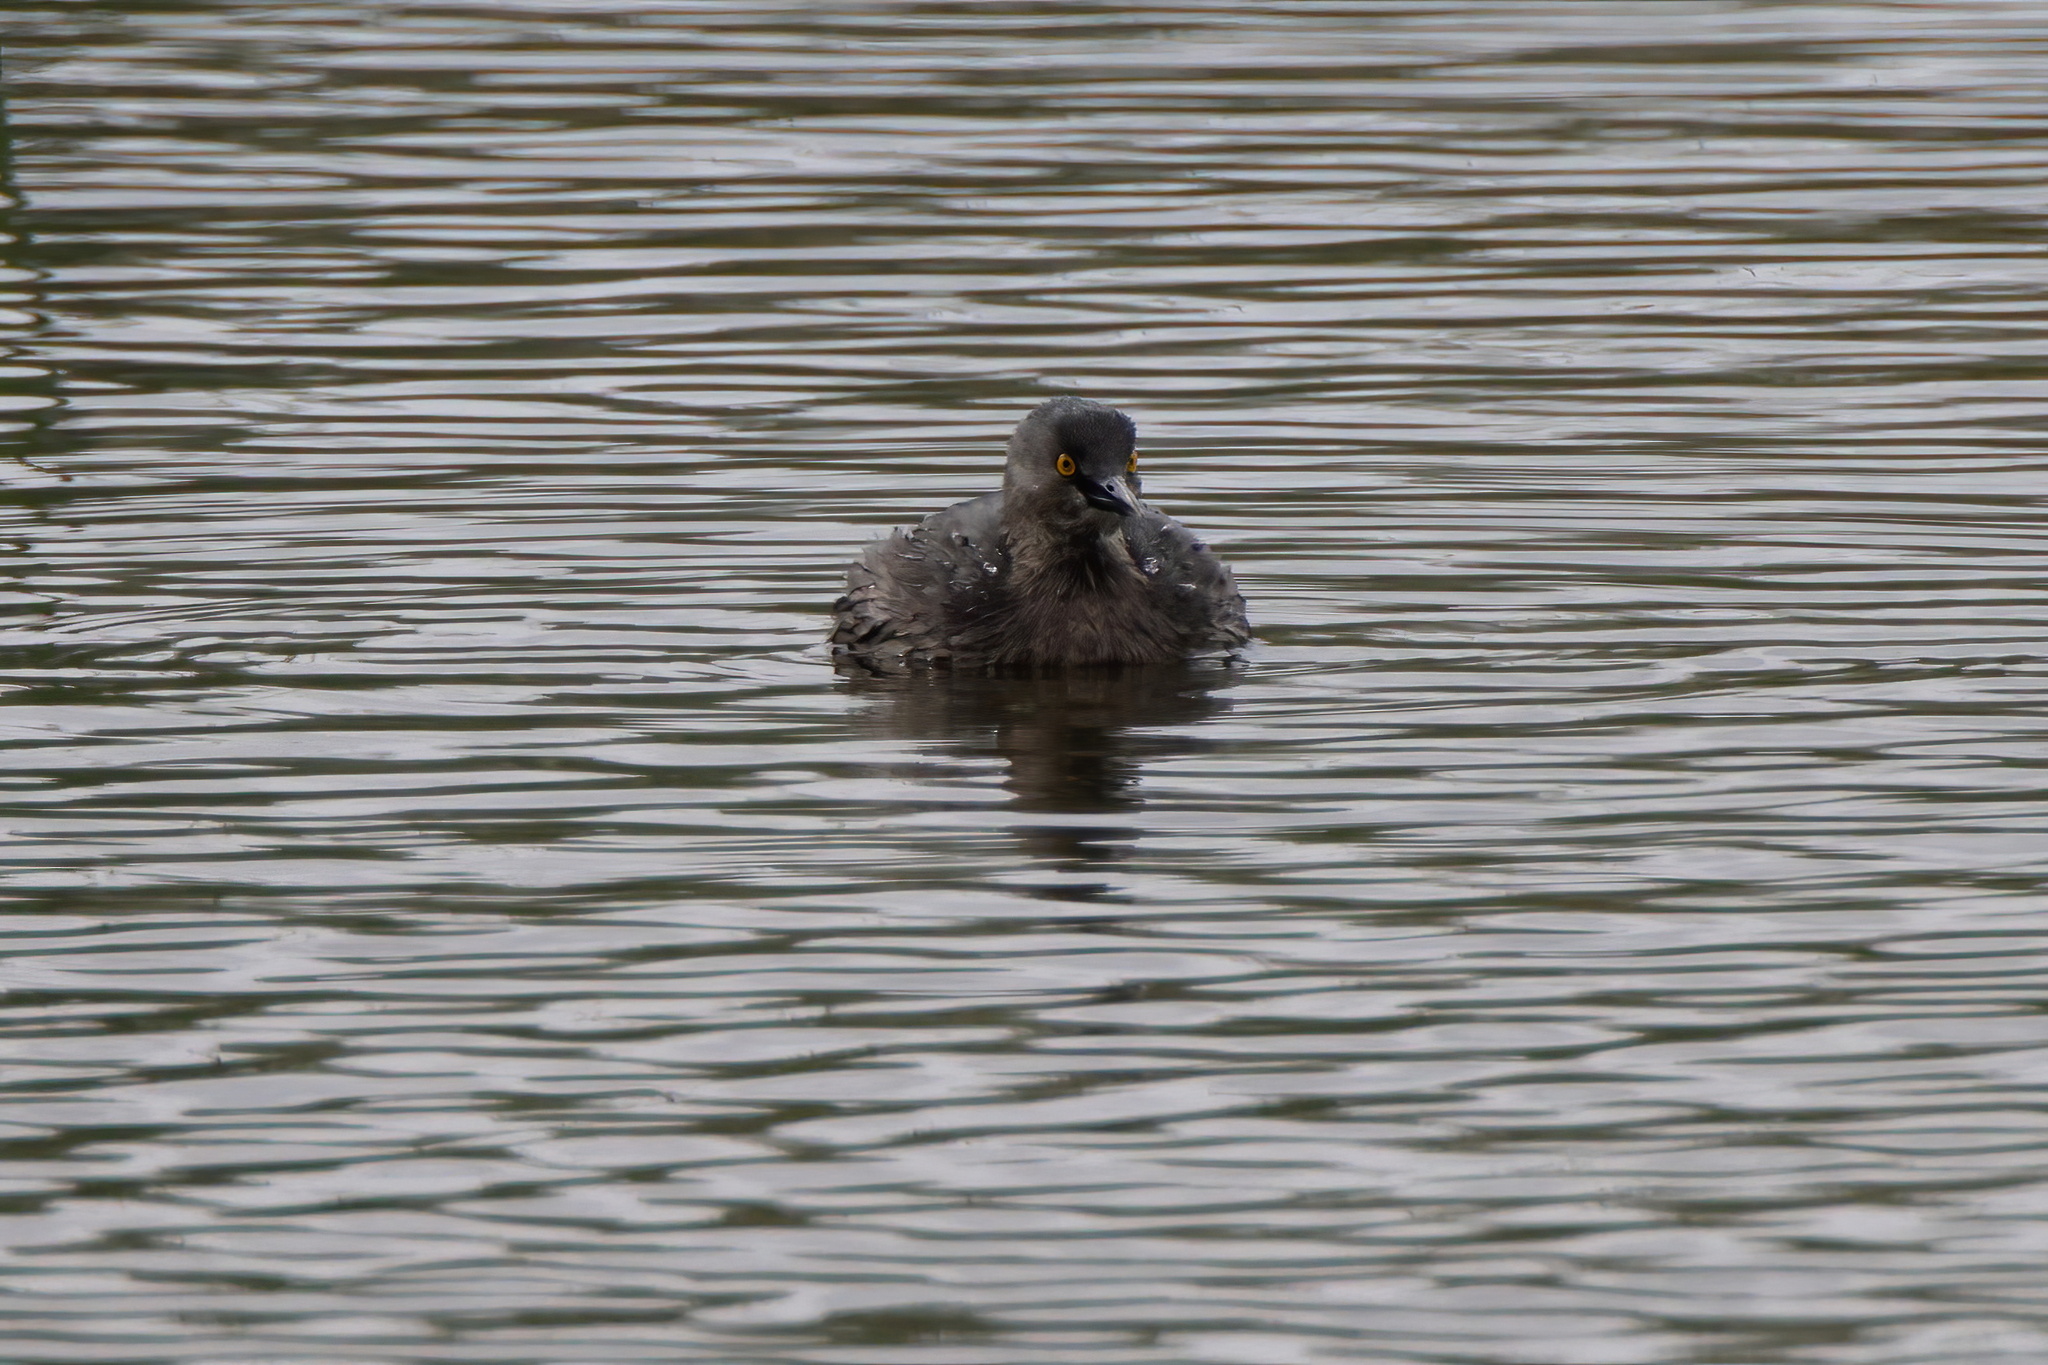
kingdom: Animalia
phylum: Chordata
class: Aves
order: Podicipediformes
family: Podicipedidae
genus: Tachybaptus
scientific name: Tachybaptus dominicus
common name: Least grebe
